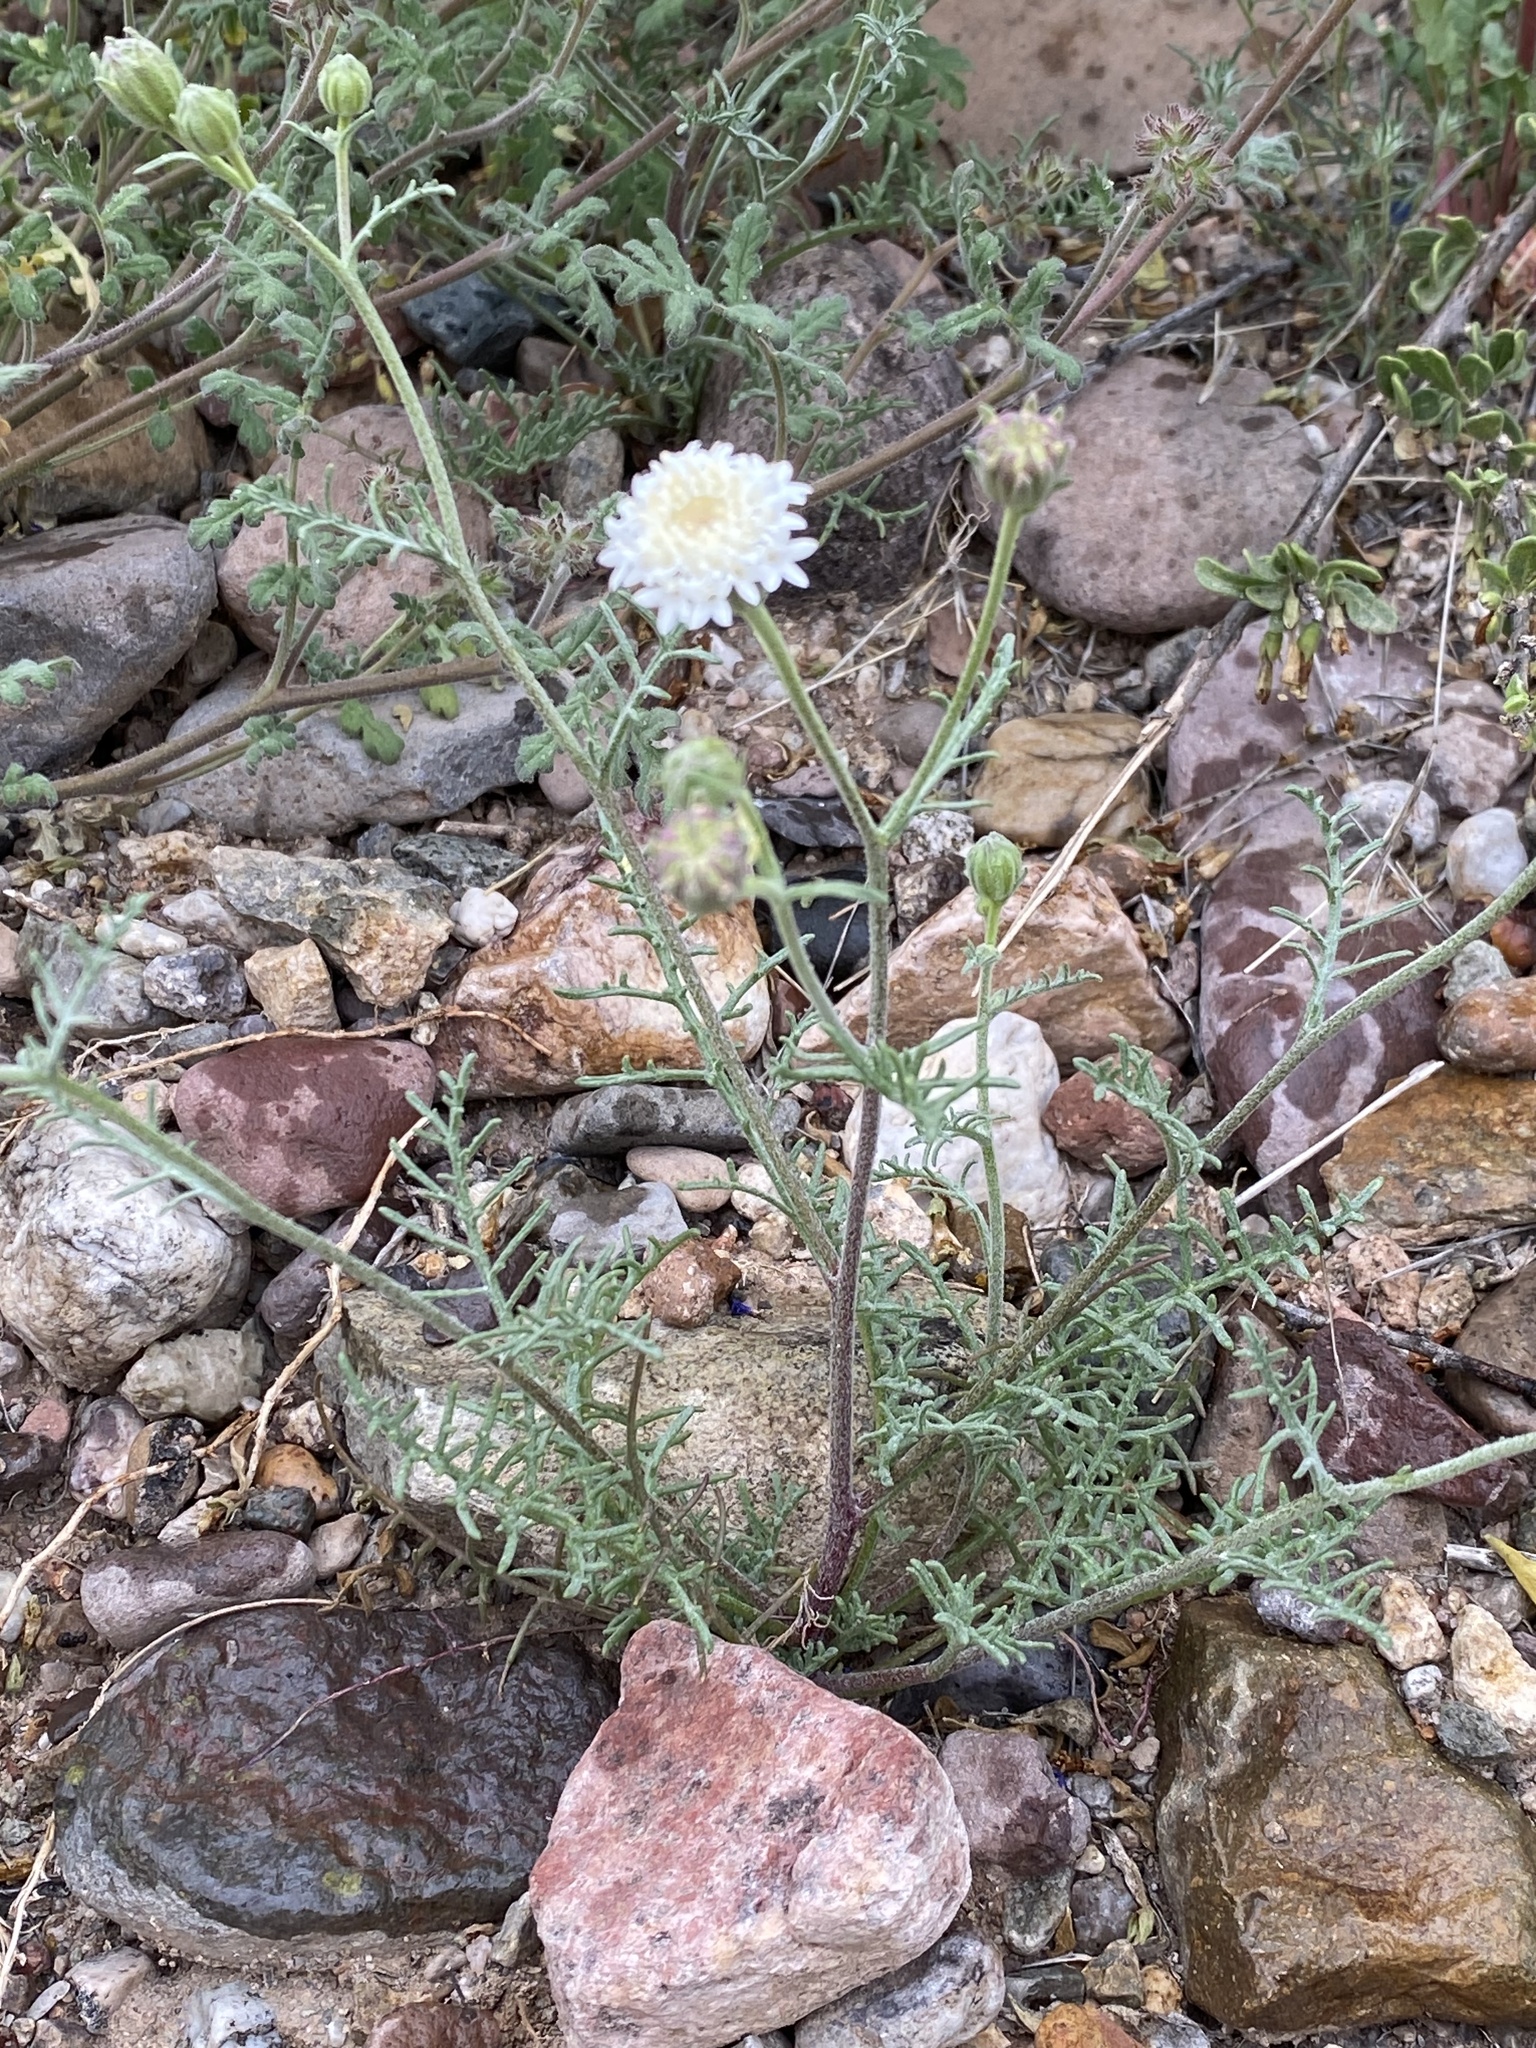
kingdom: Plantae
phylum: Tracheophyta
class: Magnoliopsida
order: Asterales
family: Asteraceae
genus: Chaenactis
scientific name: Chaenactis stevioides
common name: Desert pincushion
